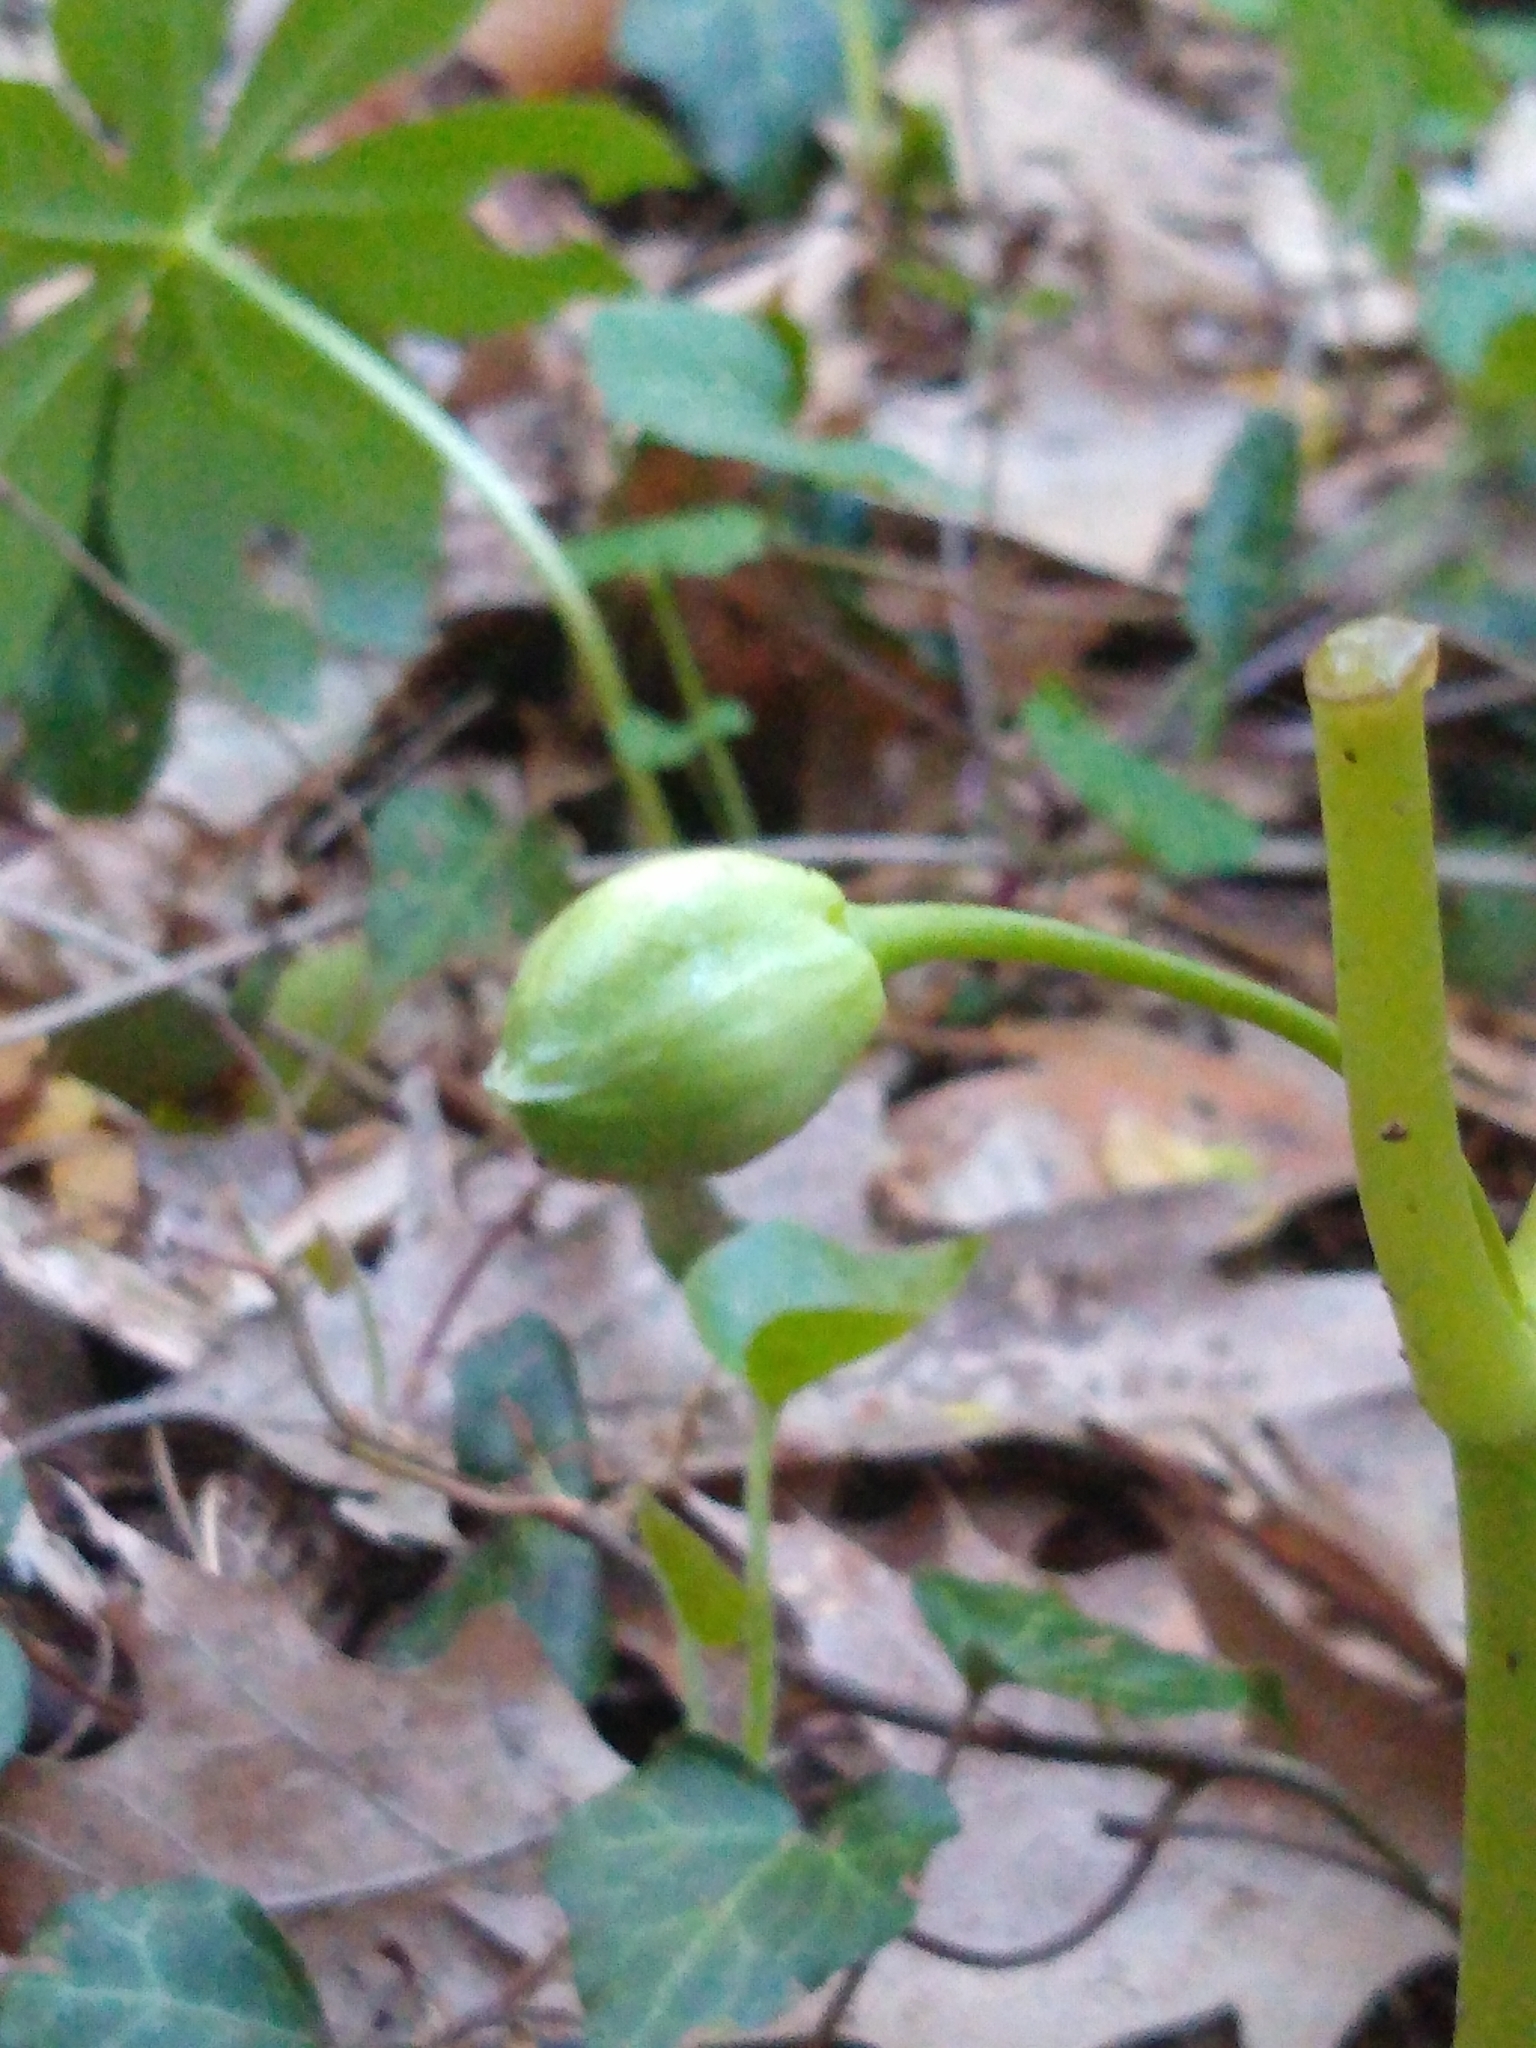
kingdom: Plantae
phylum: Tracheophyta
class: Magnoliopsida
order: Ranunculales
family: Berberidaceae
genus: Podophyllum
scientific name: Podophyllum peltatum
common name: Wild mandrake
